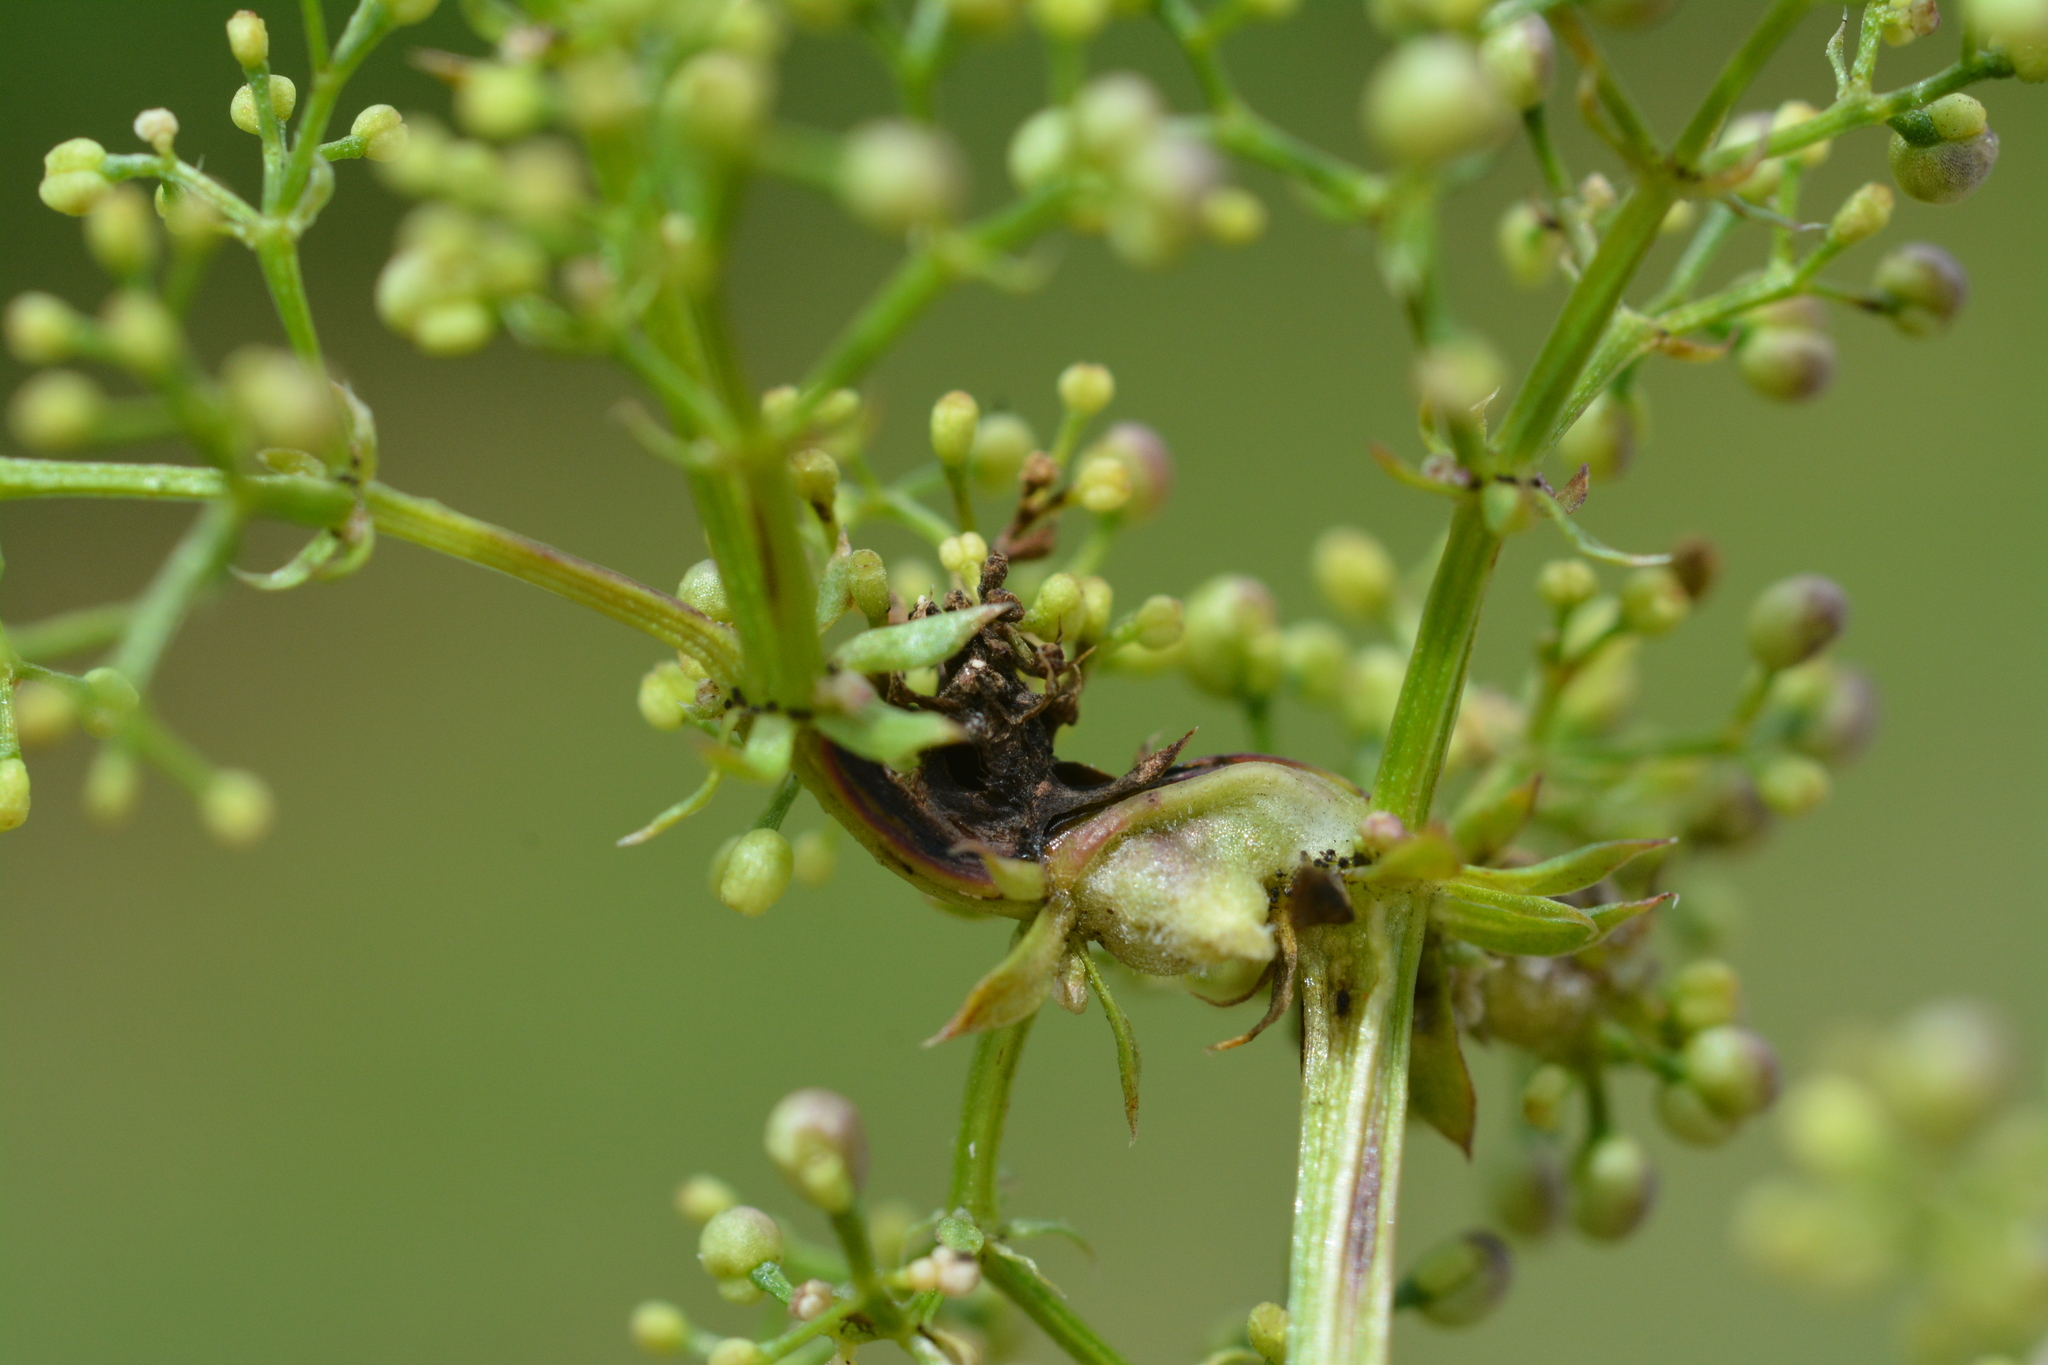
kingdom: Animalia
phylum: Arthropoda
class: Insecta
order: Diptera
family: Cecidomyiidae
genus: Geocrypta
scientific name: Geocrypta galii
